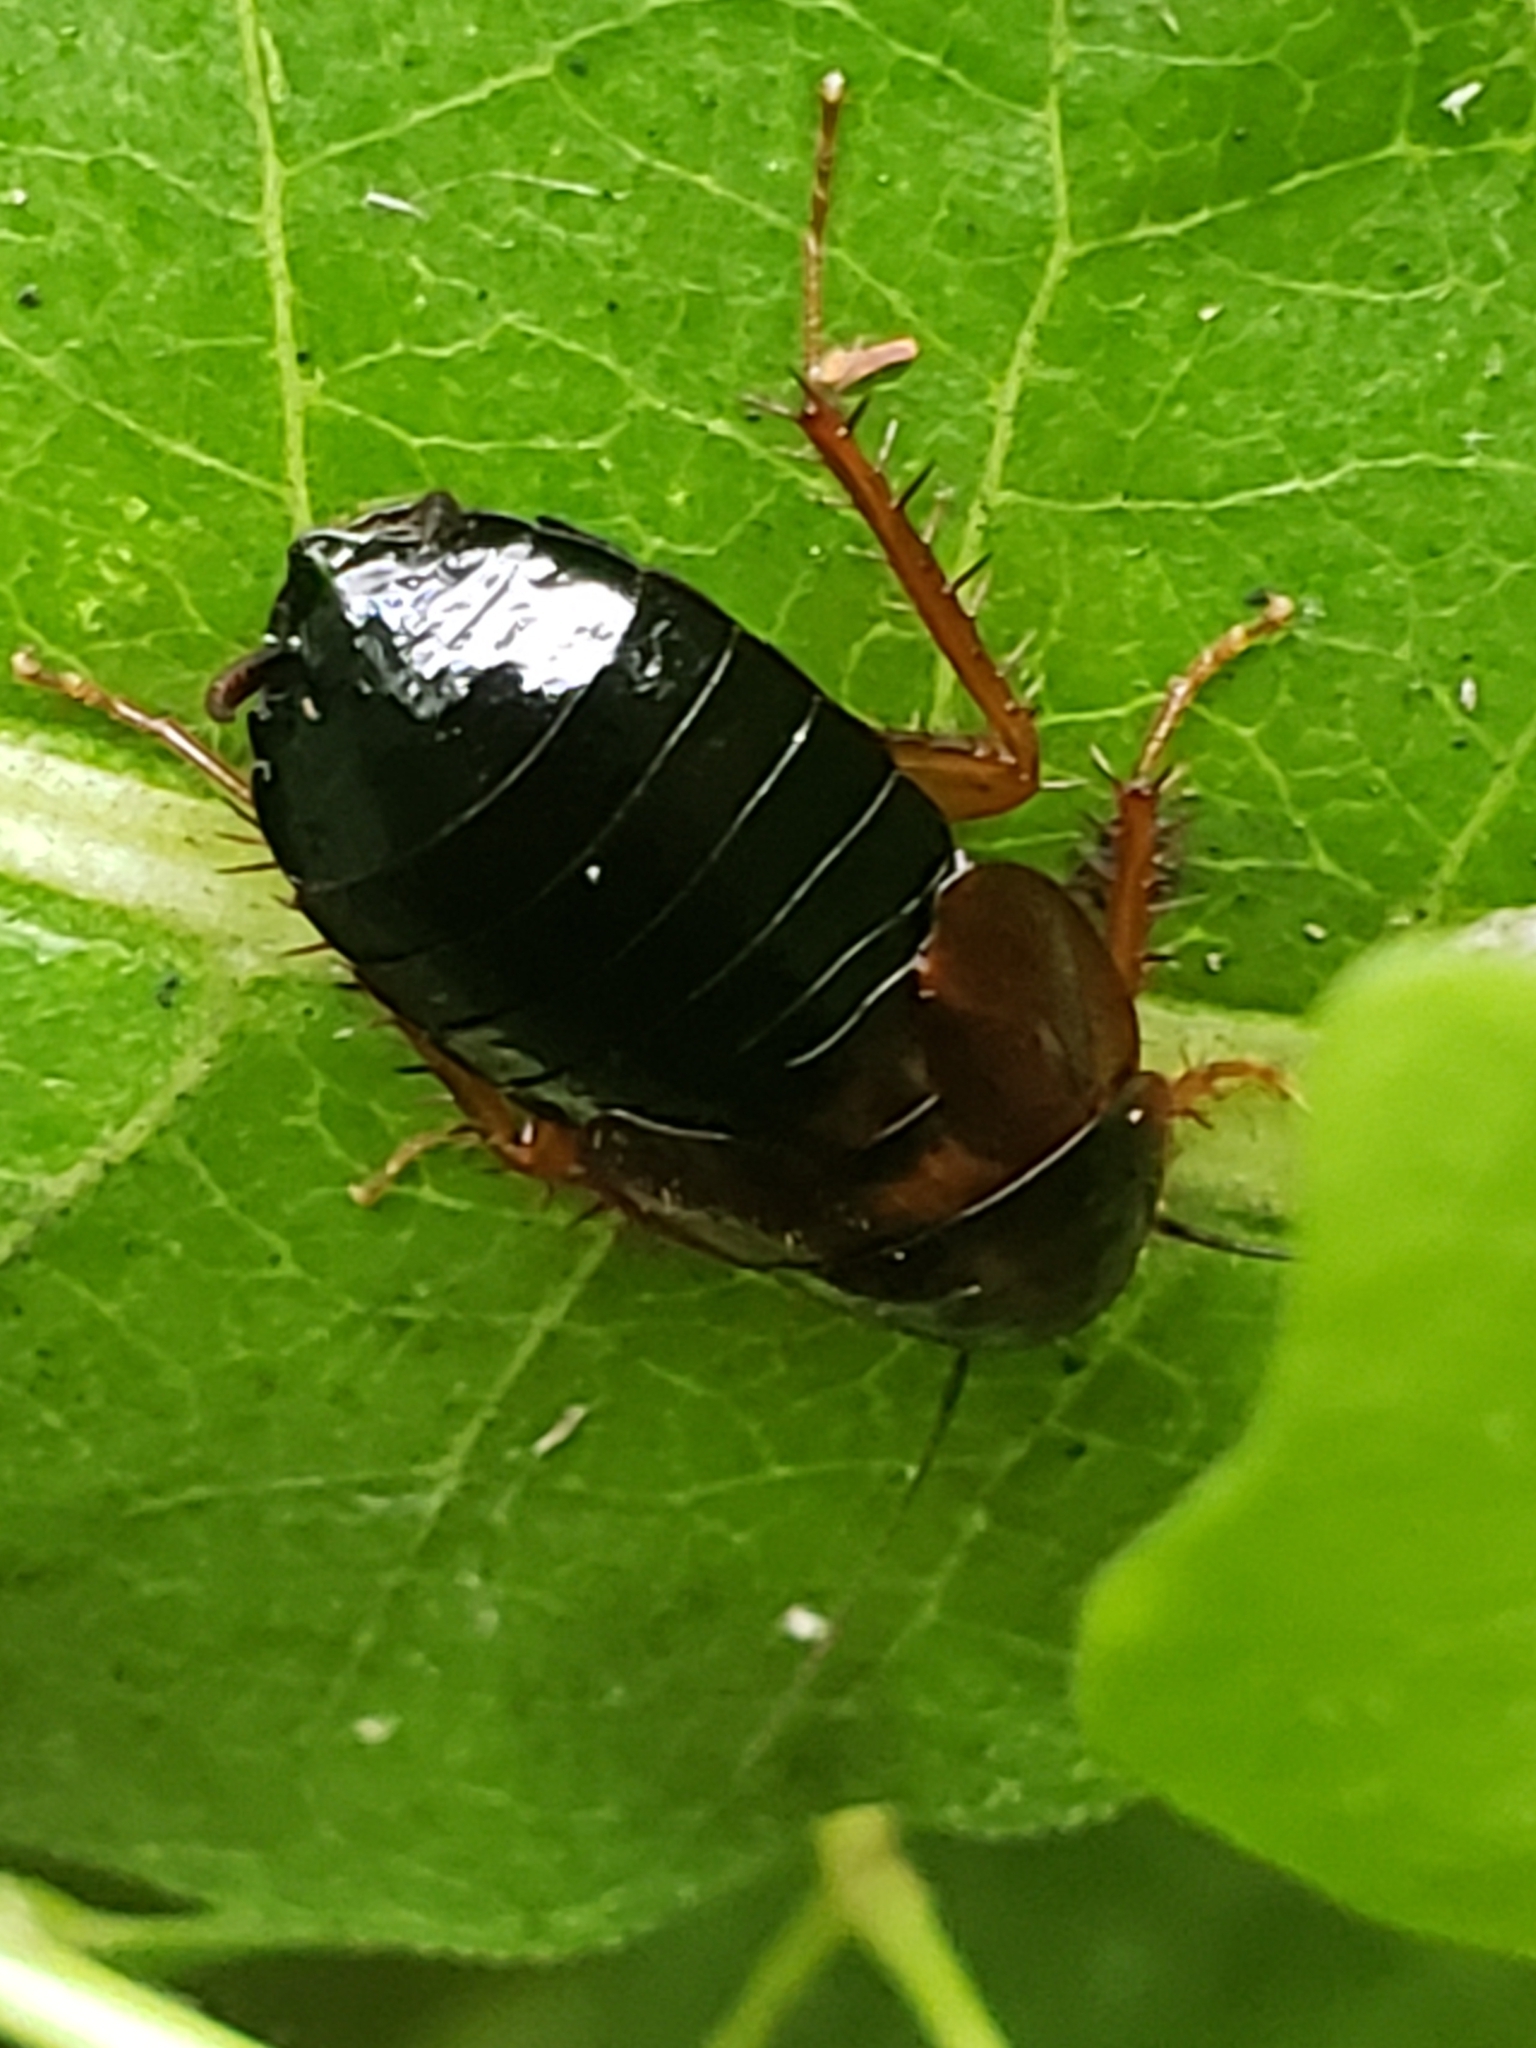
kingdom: Animalia
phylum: Arthropoda
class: Insecta
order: Blattodea
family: Ectobiidae
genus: Parcoblatta
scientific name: Parcoblatta uhleriana
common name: Uhler's wood cockroach
